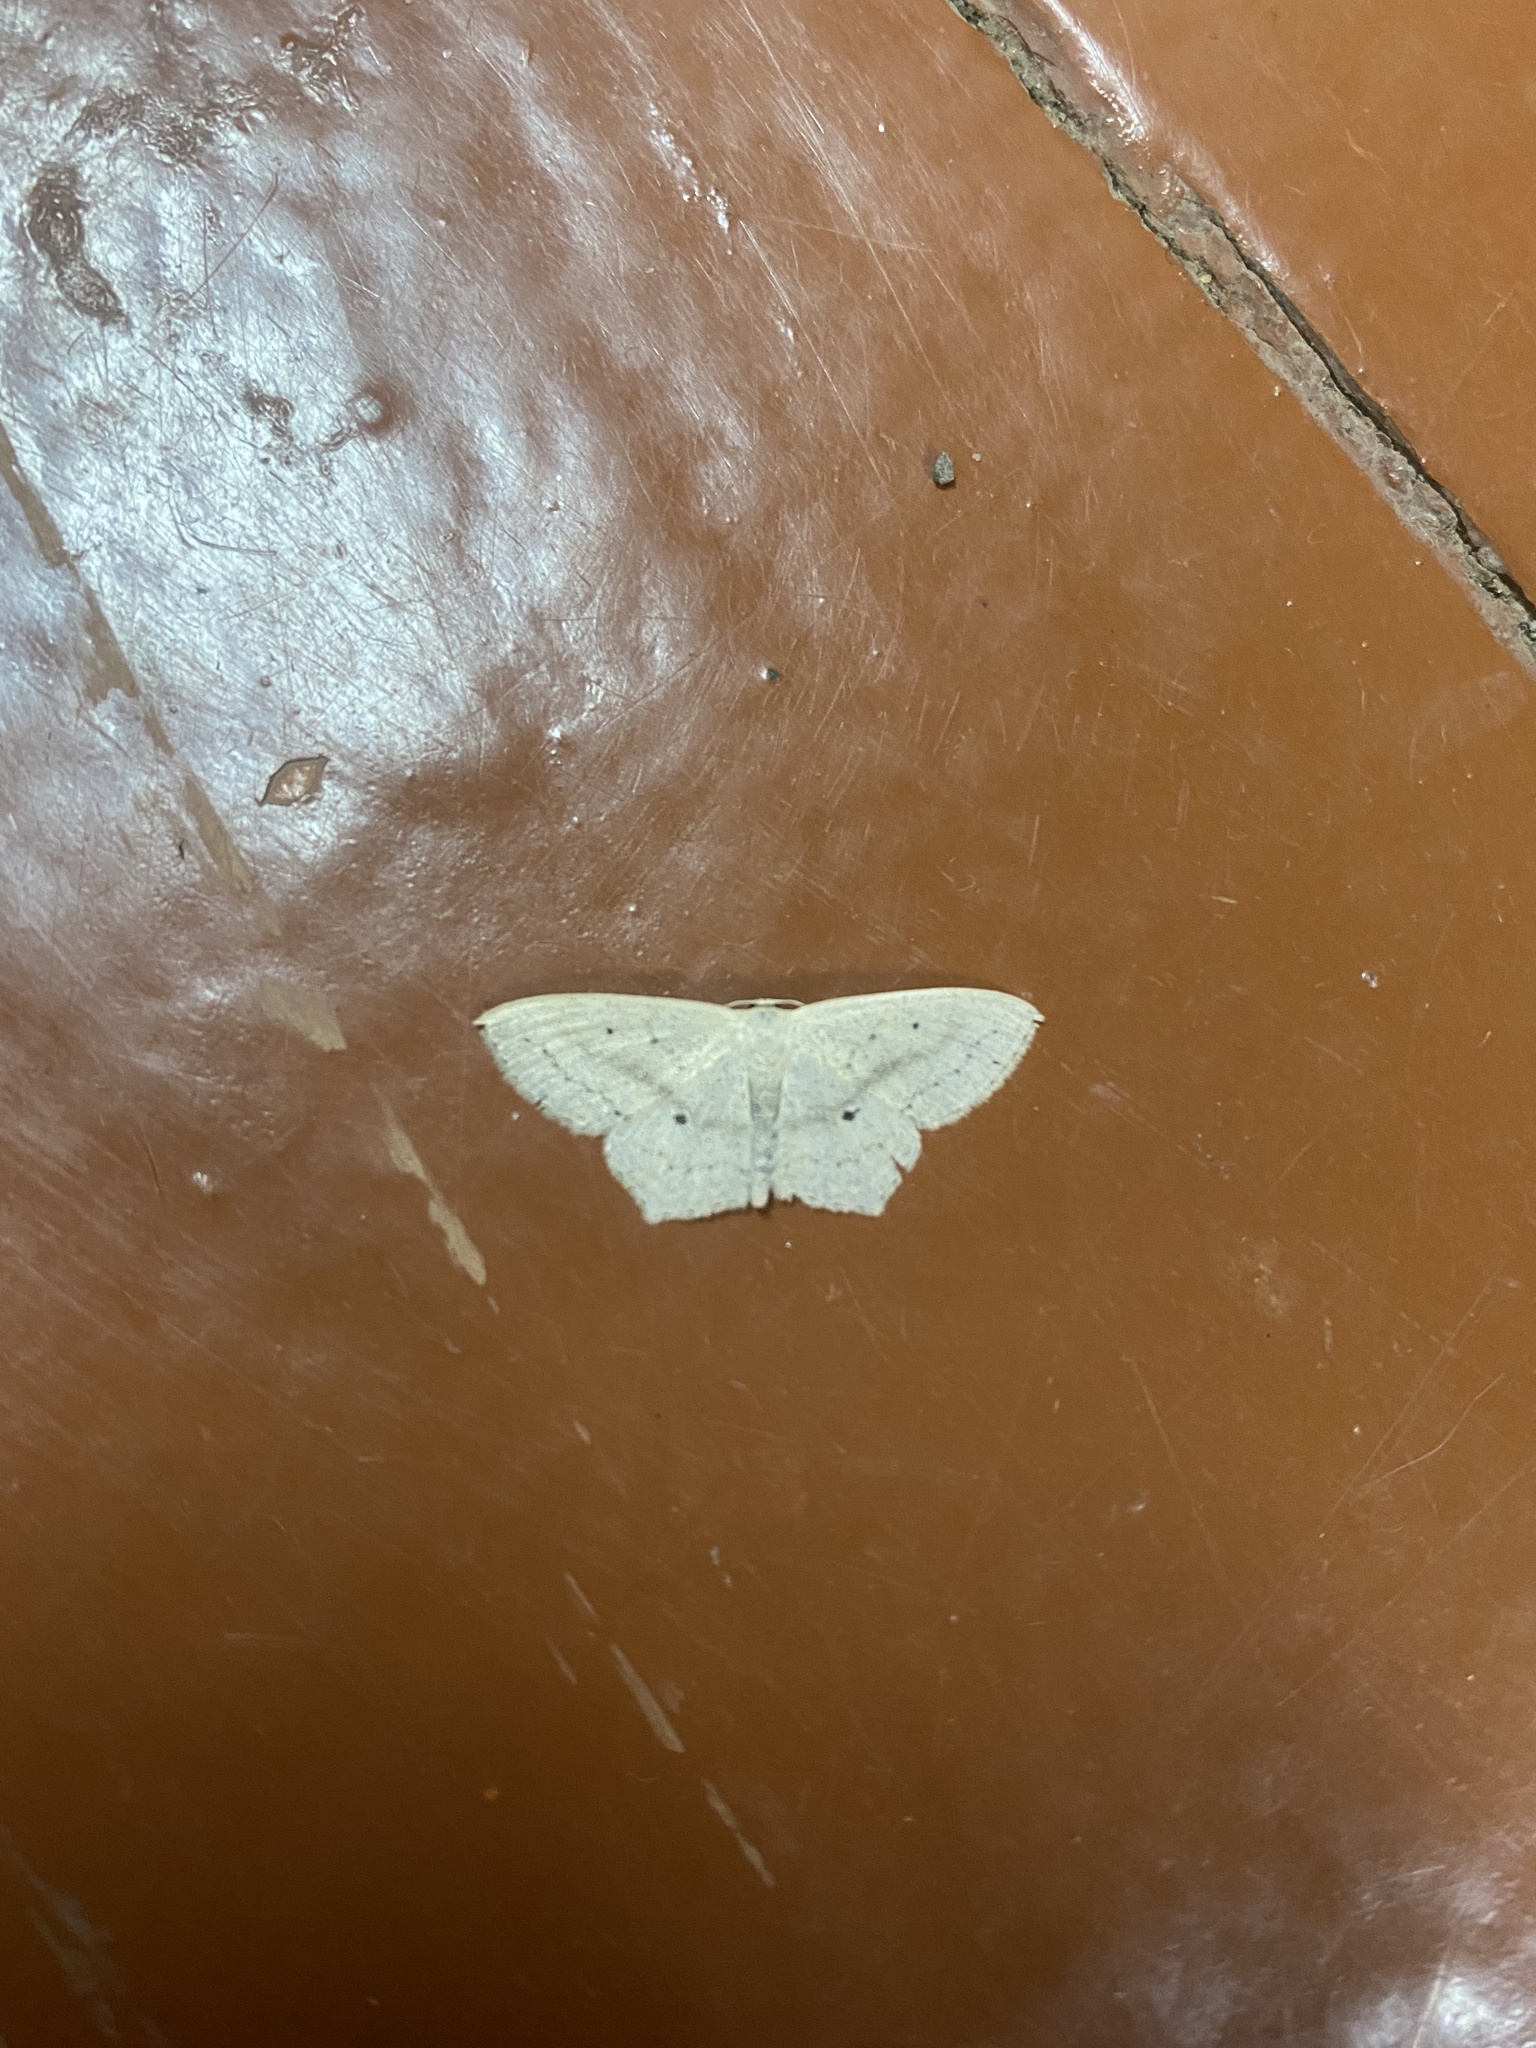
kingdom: Animalia
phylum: Arthropoda
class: Insecta
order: Lepidoptera
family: Geometridae
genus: Scopula
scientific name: Scopula nigropunctata
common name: Sub-angled wave
